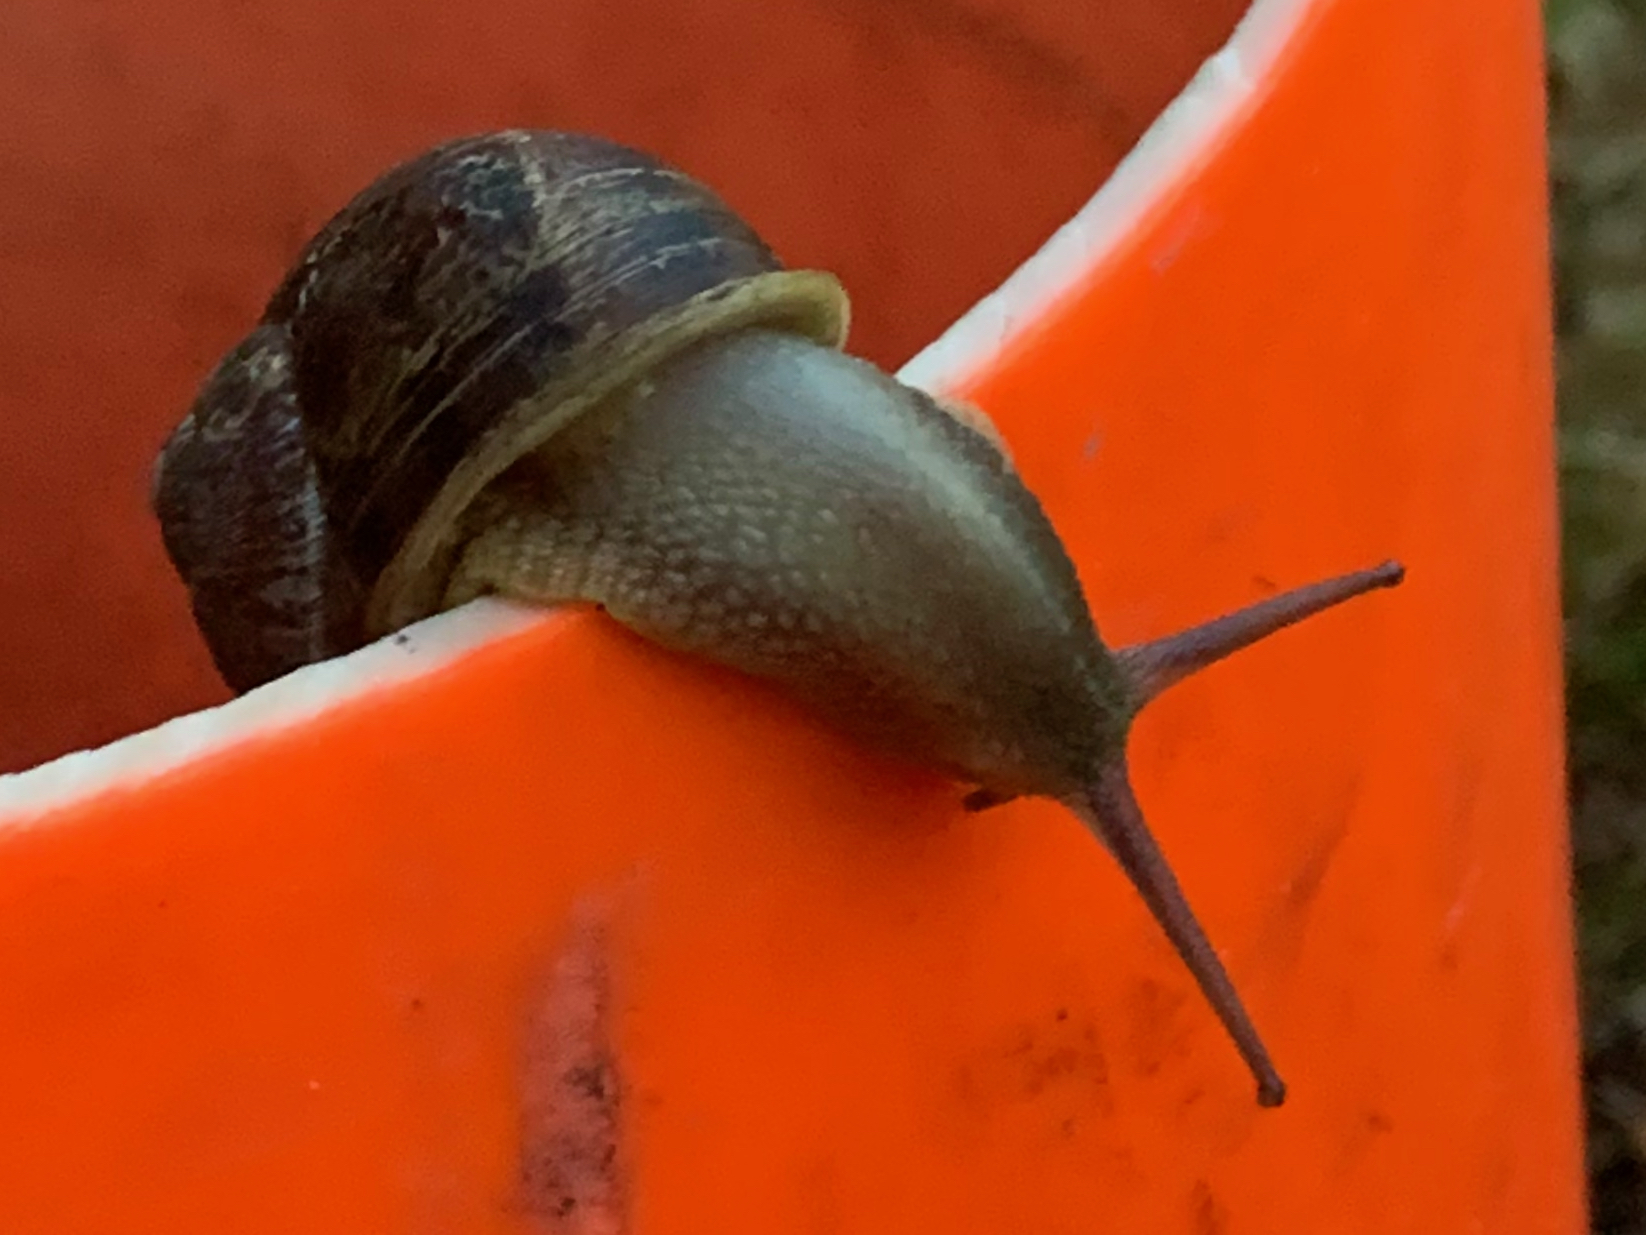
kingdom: Animalia
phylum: Mollusca
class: Gastropoda
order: Stylommatophora
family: Helicidae
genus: Cornu
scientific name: Cornu aspersum
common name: Brown garden snail
